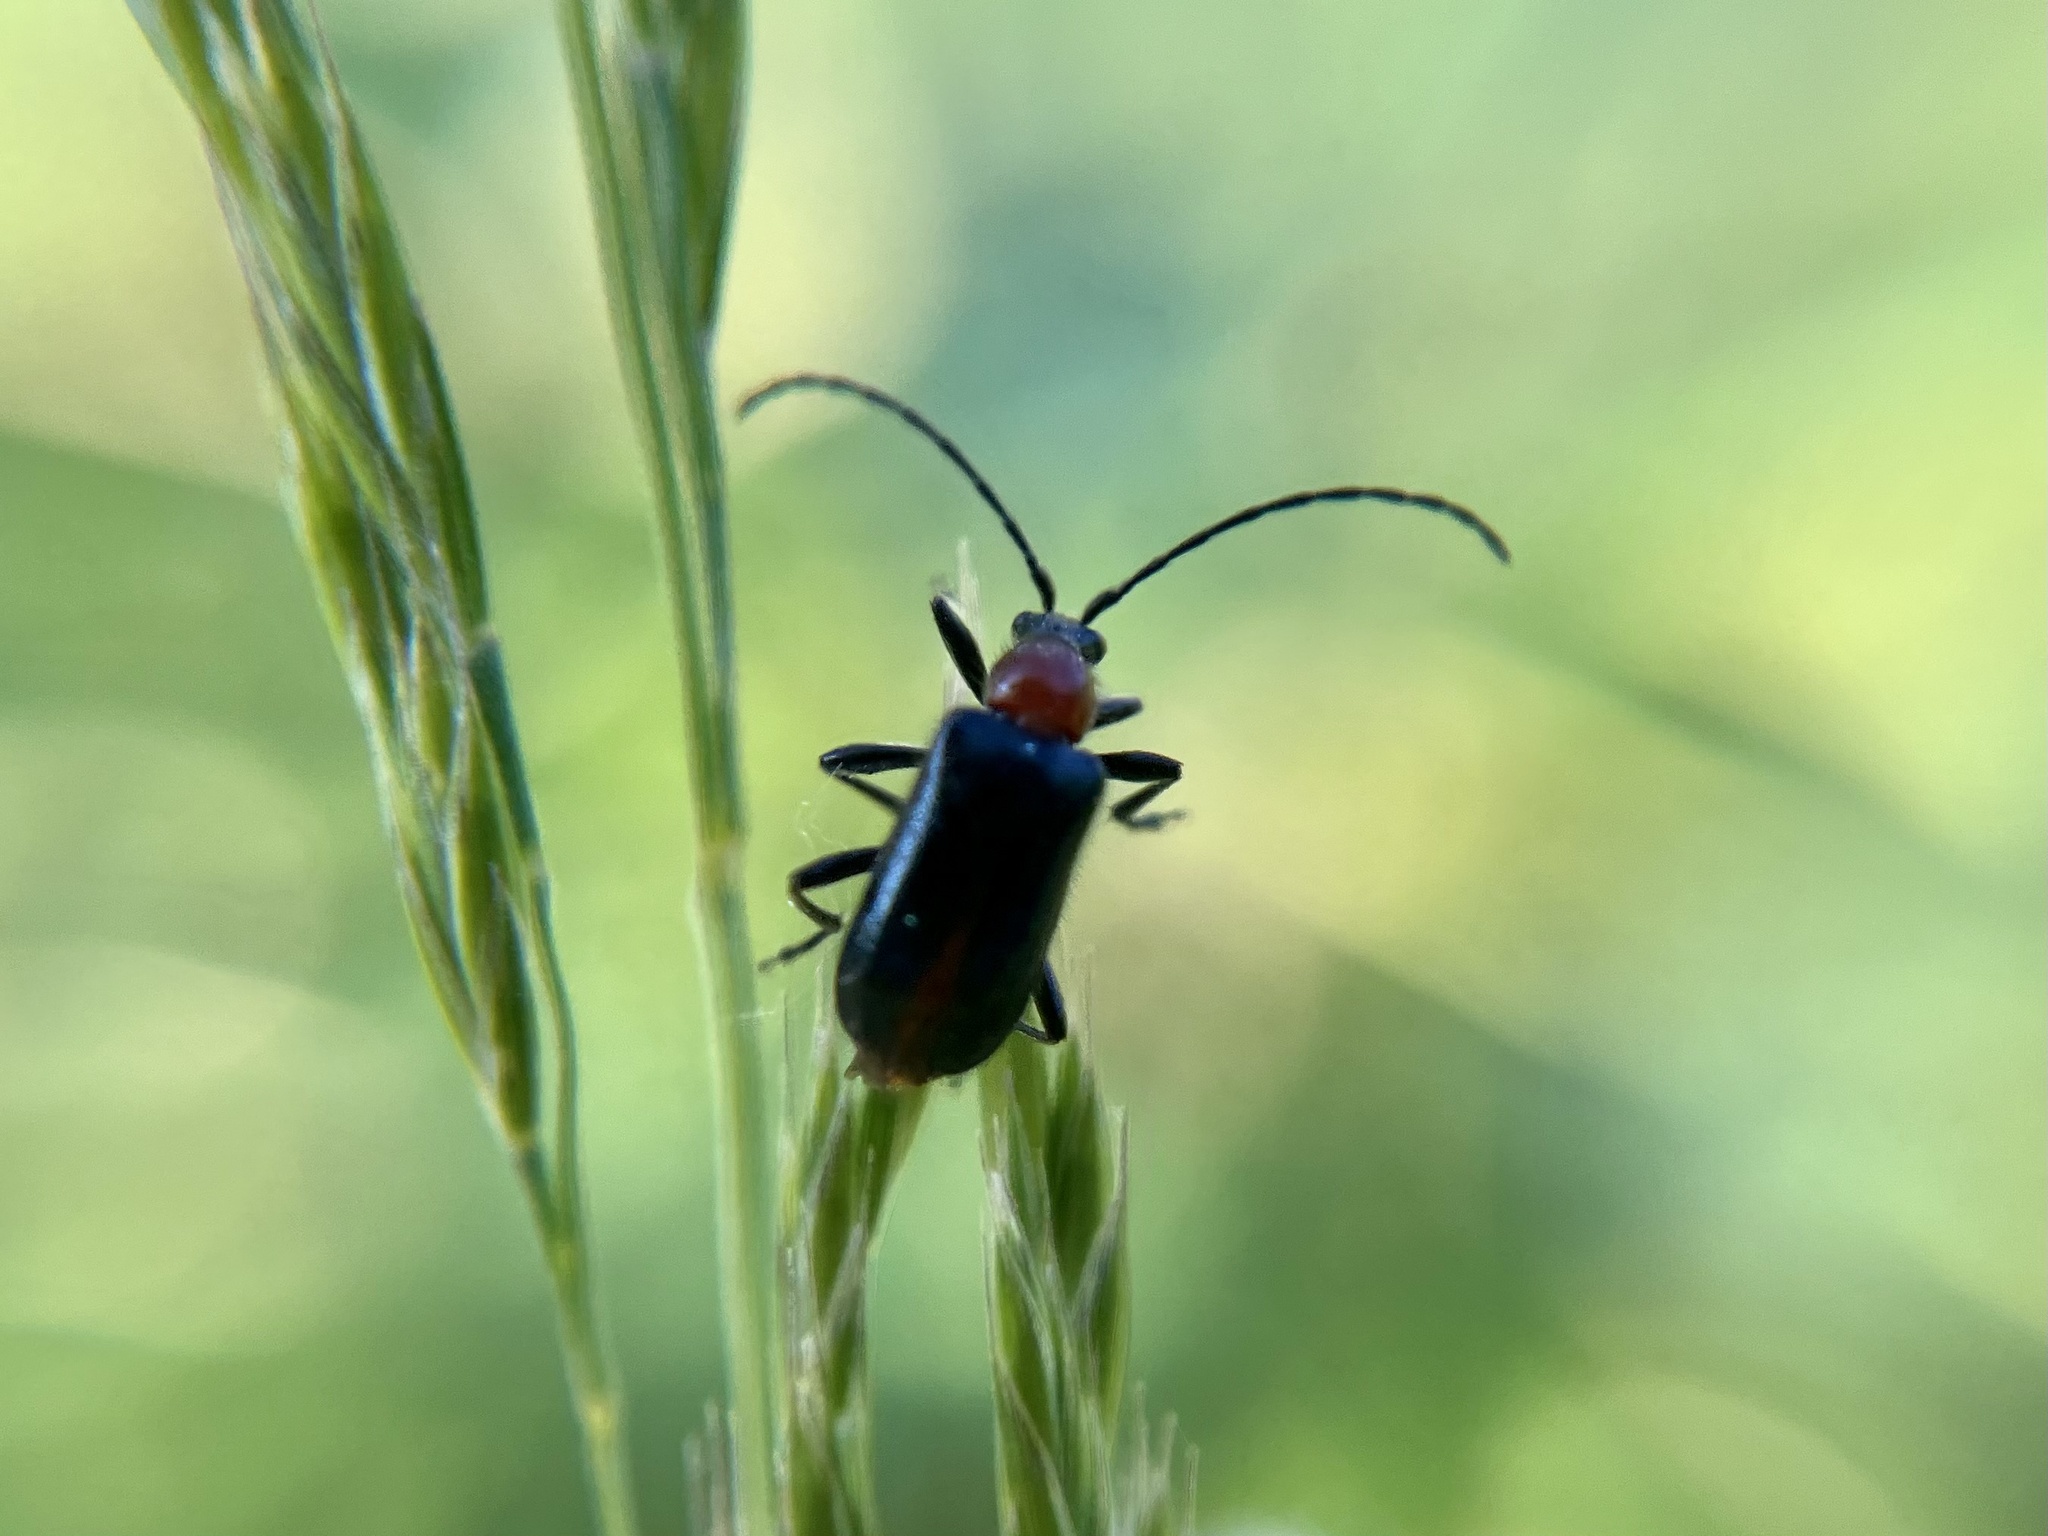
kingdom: Animalia
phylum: Arthropoda
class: Insecta
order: Coleoptera
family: Cerambycidae
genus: Dinoptera
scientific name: Dinoptera collaris
